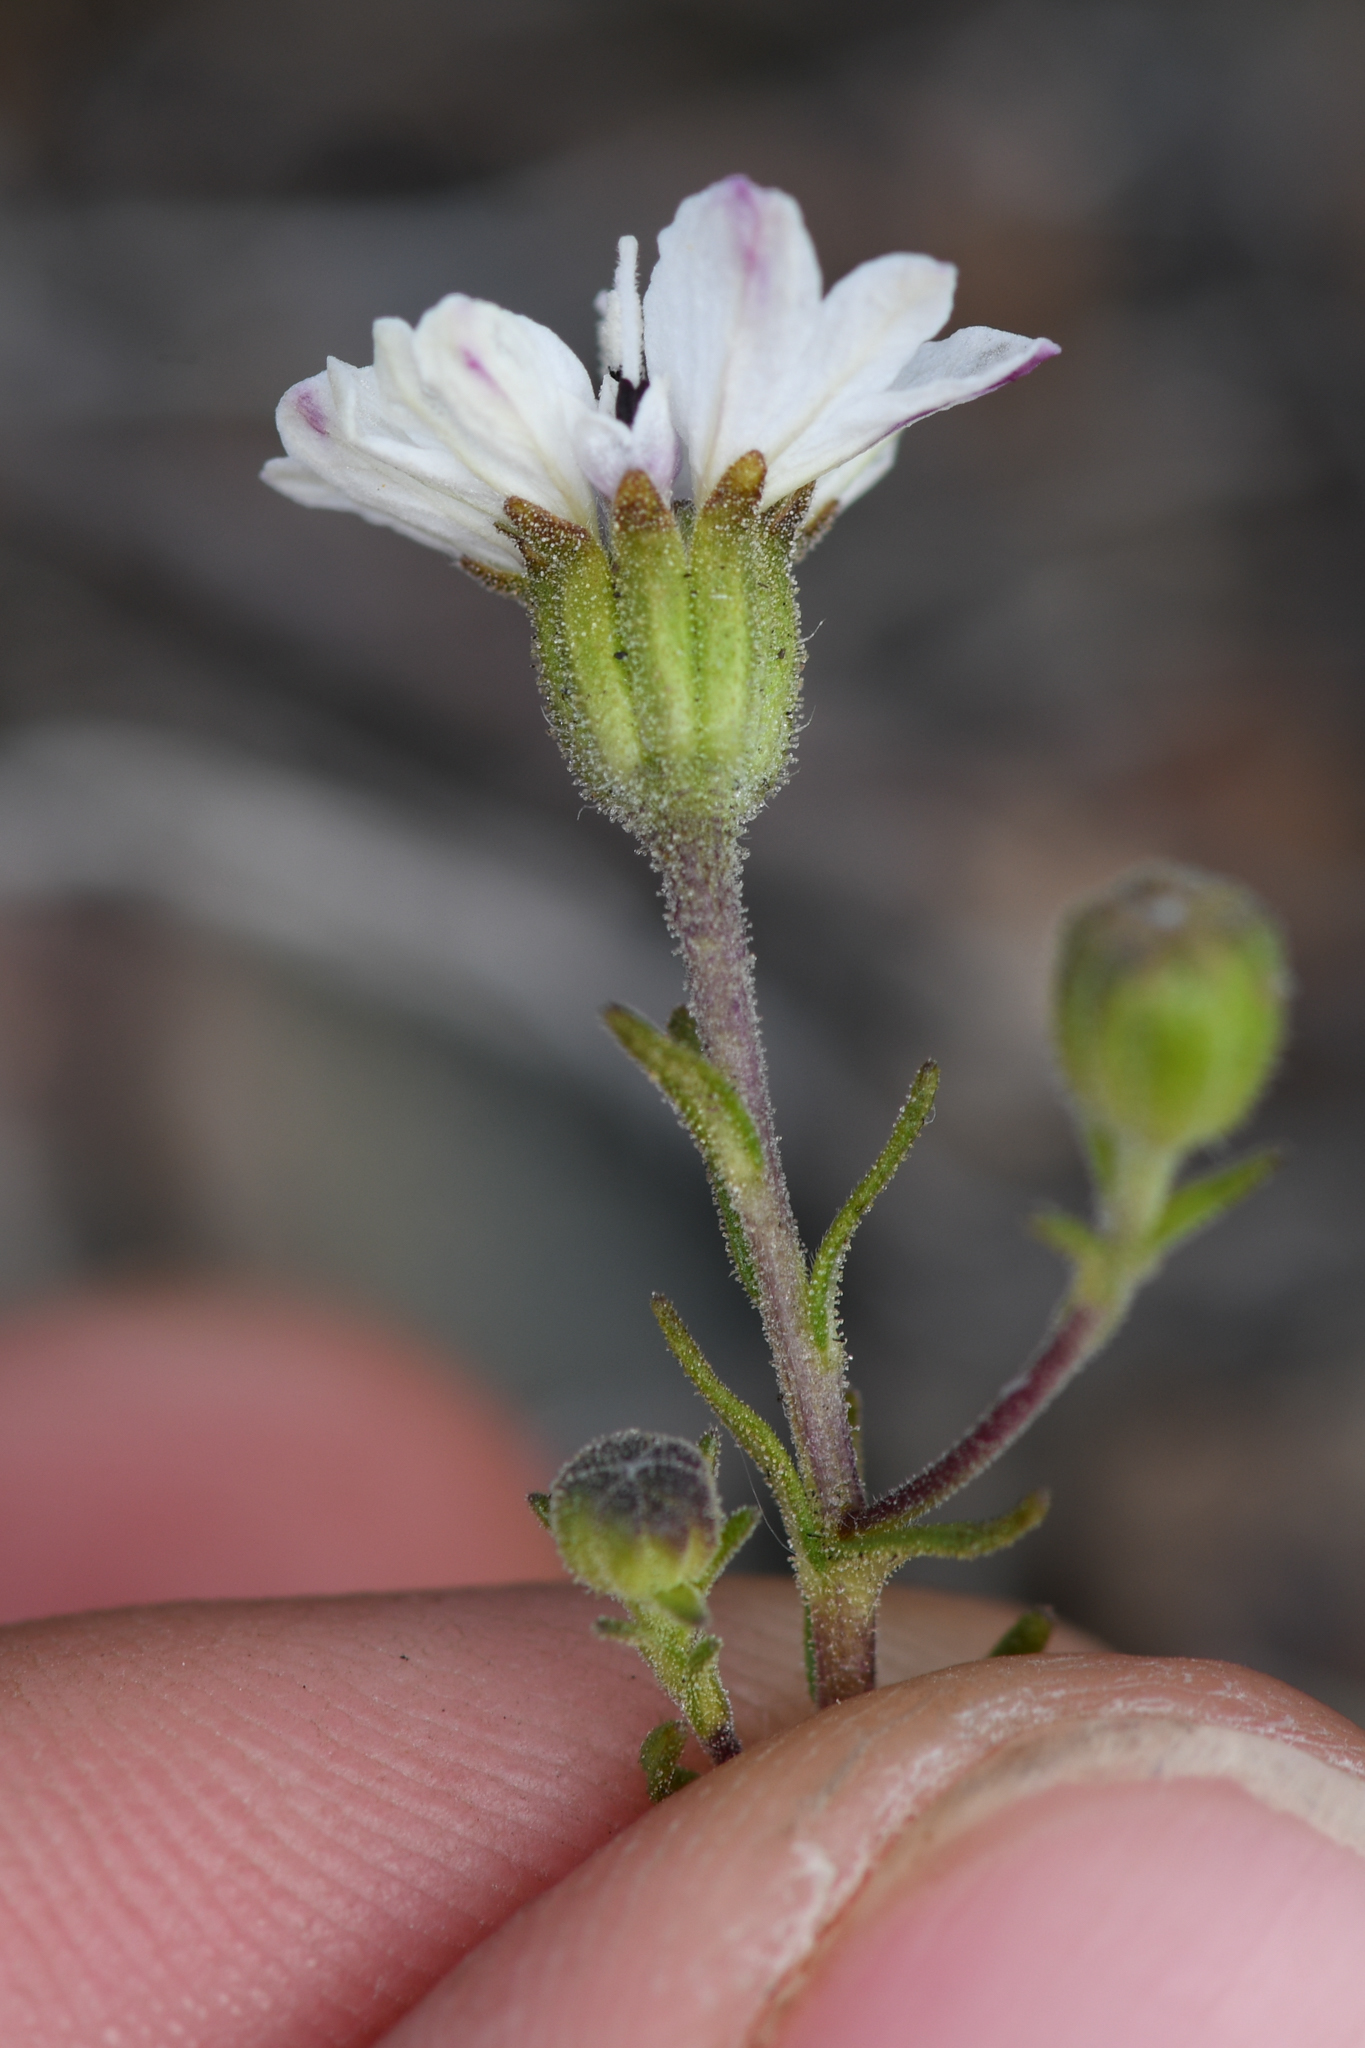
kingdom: Plantae
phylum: Tracheophyta
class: Magnoliopsida
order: Asterales
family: Asteraceae
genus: Blepharipappus
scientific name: Blepharipappus scaber
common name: Rough blepharipappus
